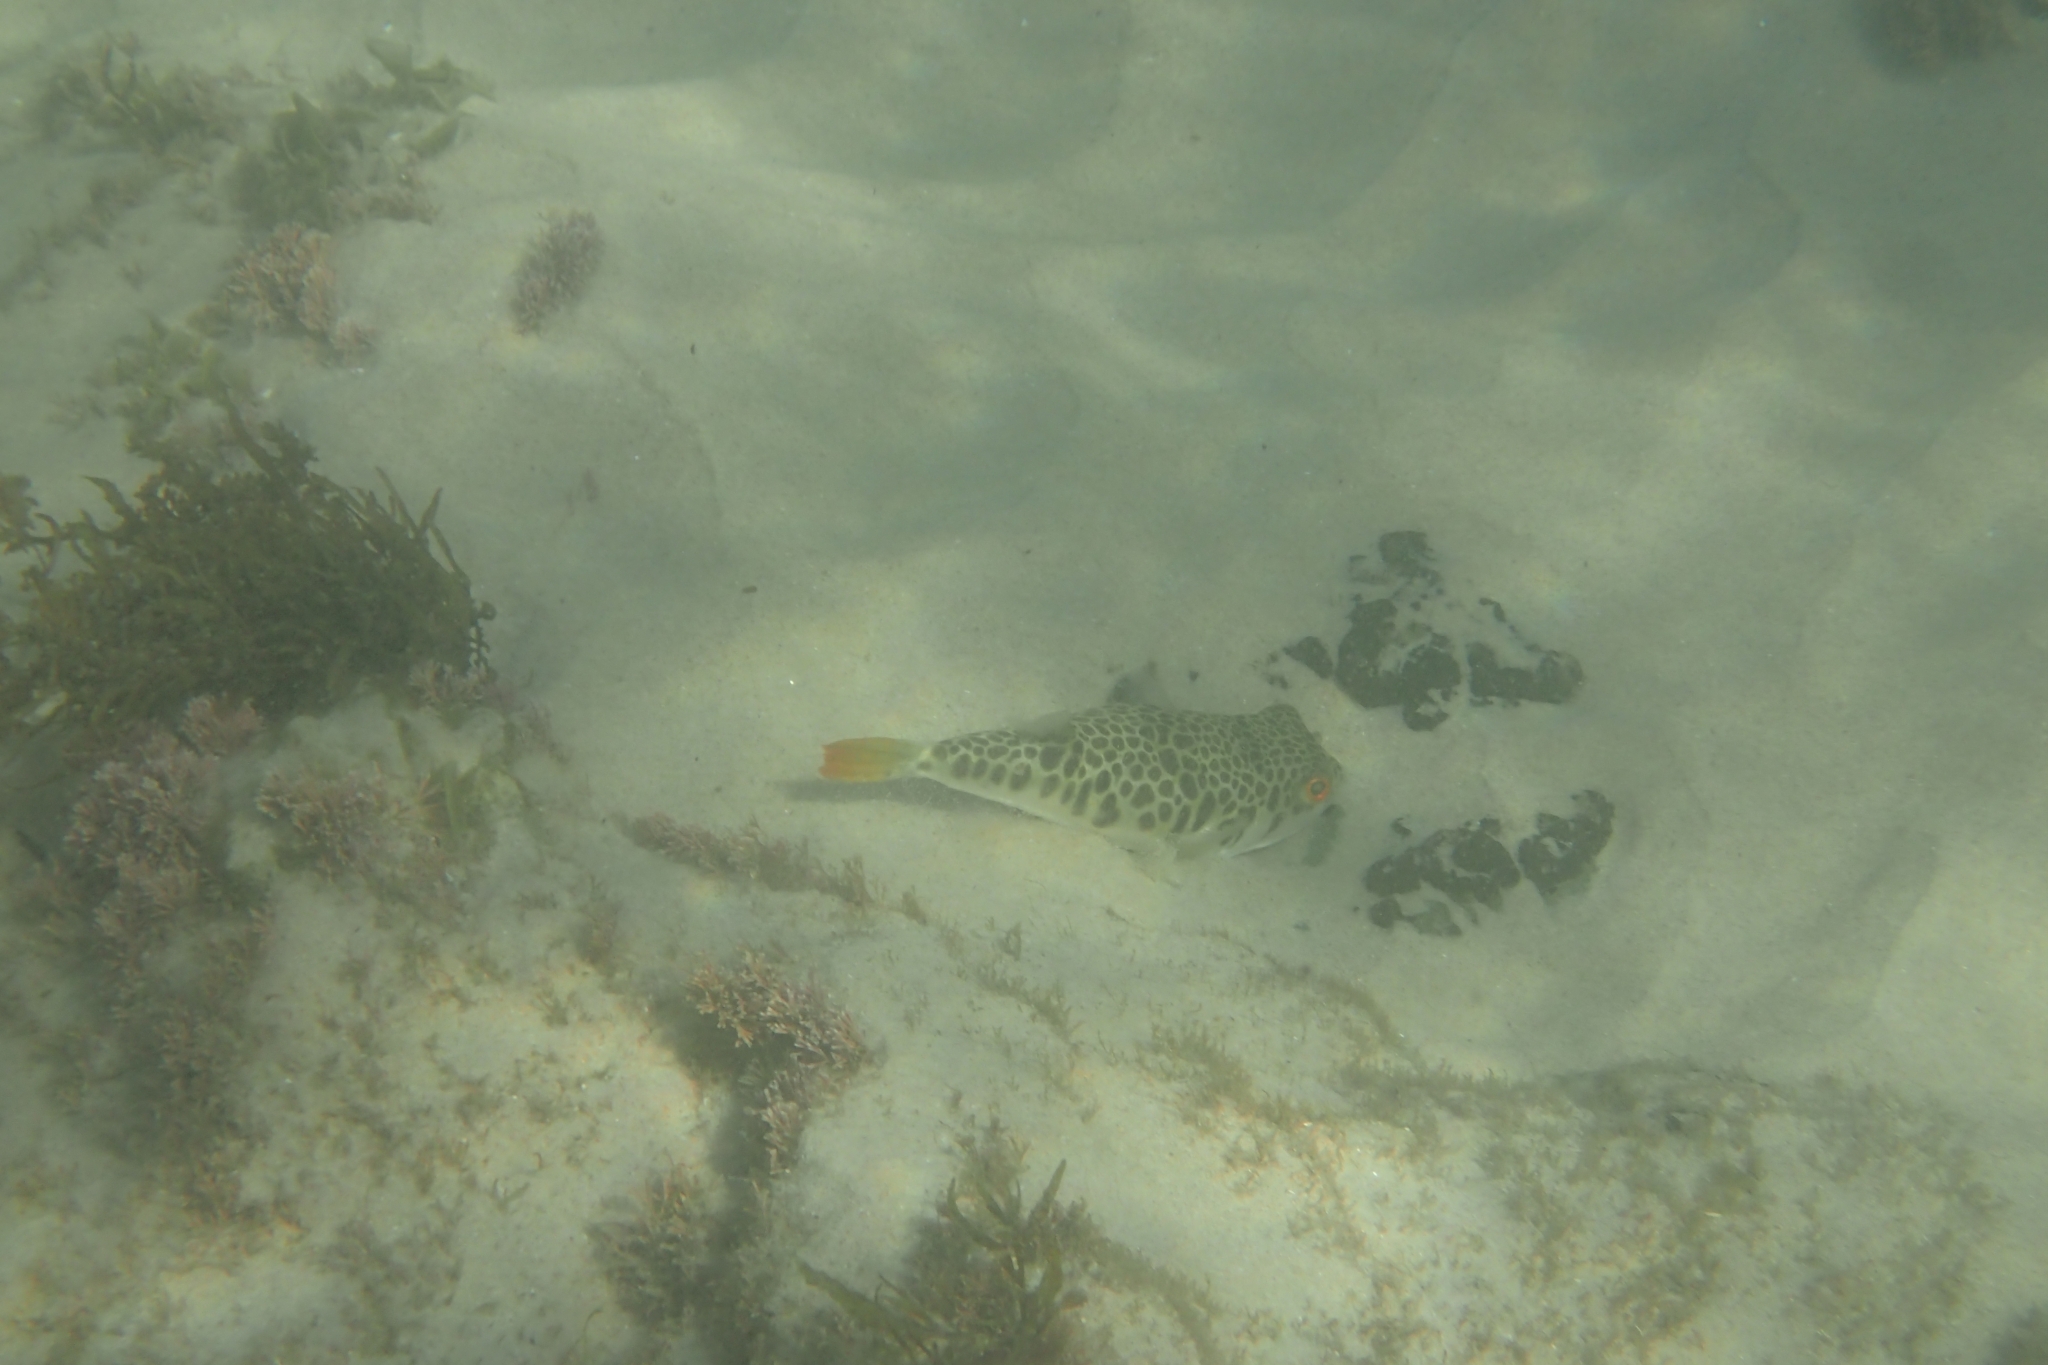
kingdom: Animalia
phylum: Chordata
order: Tetraodontiformes
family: Tetraodontidae
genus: Tetractenos
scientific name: Tetractenos glaber
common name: Smooth toadfish
